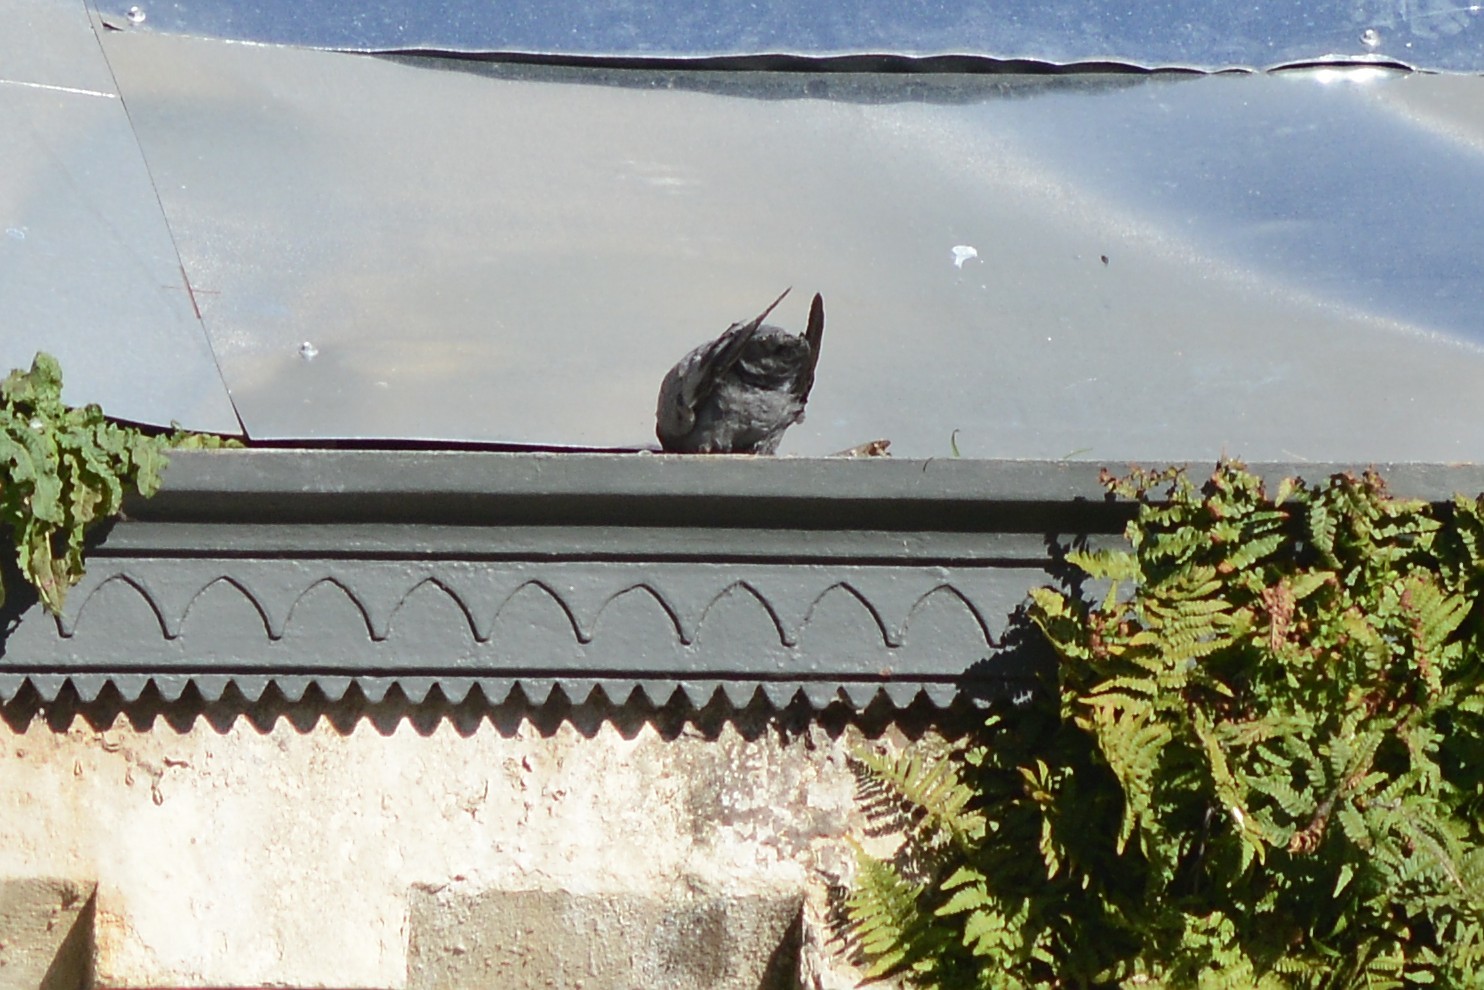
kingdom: Animalia
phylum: Chordata
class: Aves
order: Columbiformes
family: Columbidae
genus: Columba
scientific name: Columba livia
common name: Rock pigeon
